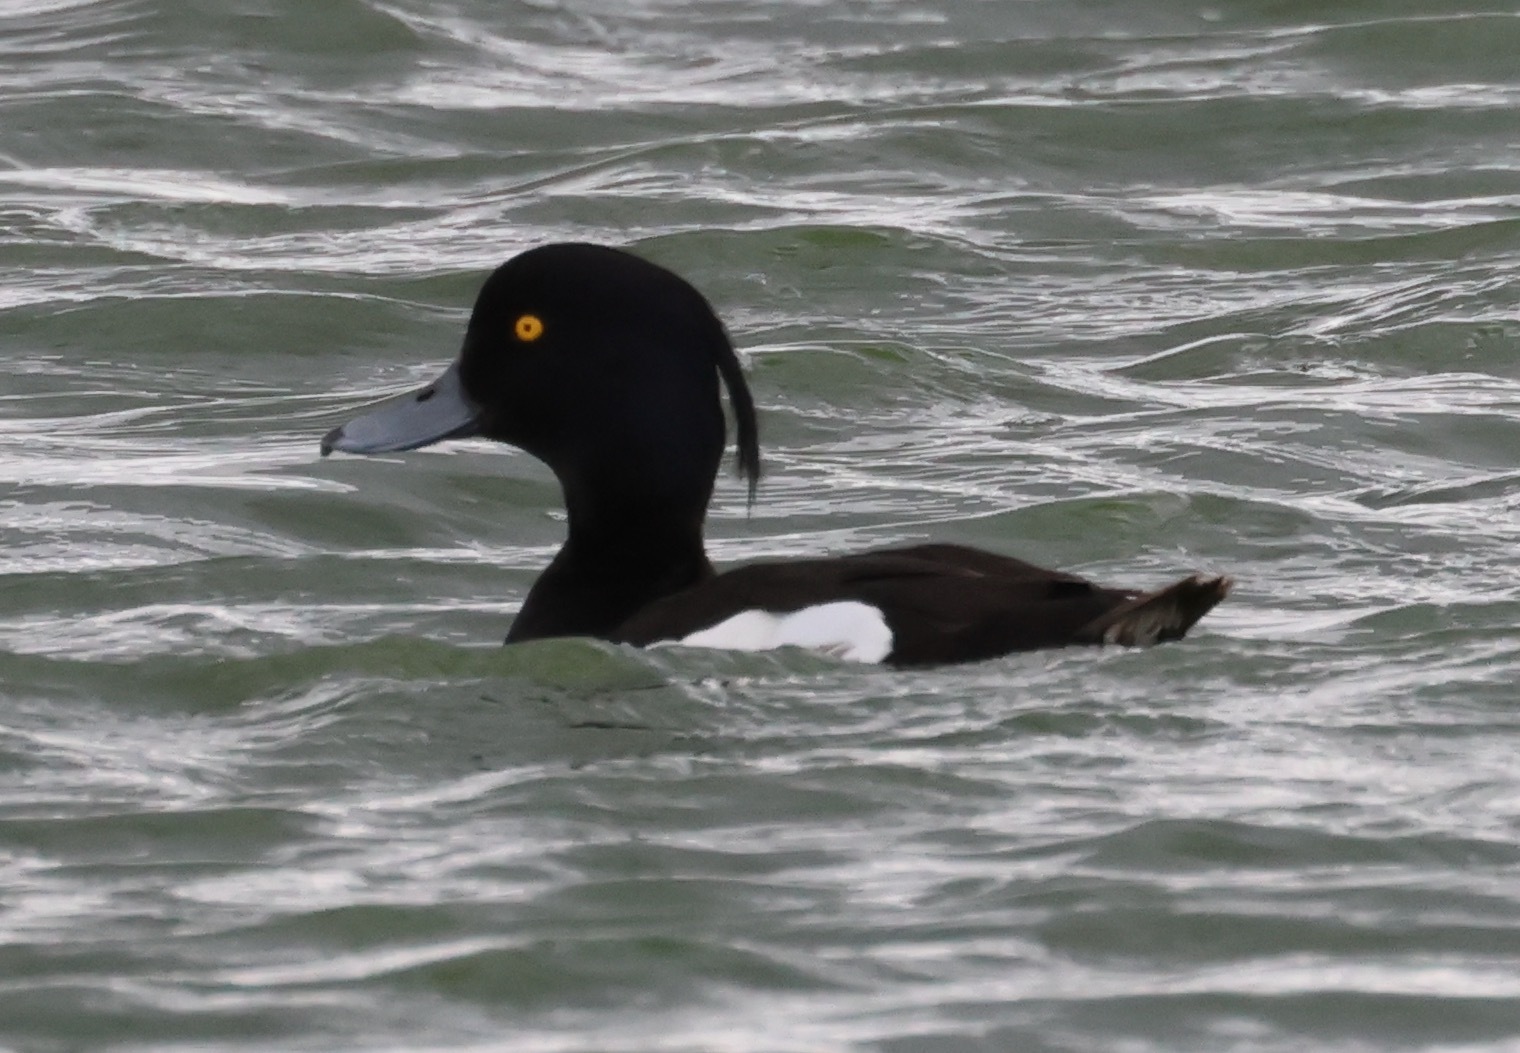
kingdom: Animalia
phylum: Chordata
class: Aves
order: Anseriformes
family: Anatidae
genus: Aythya
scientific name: Aythya fuligula
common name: Tufted duck
